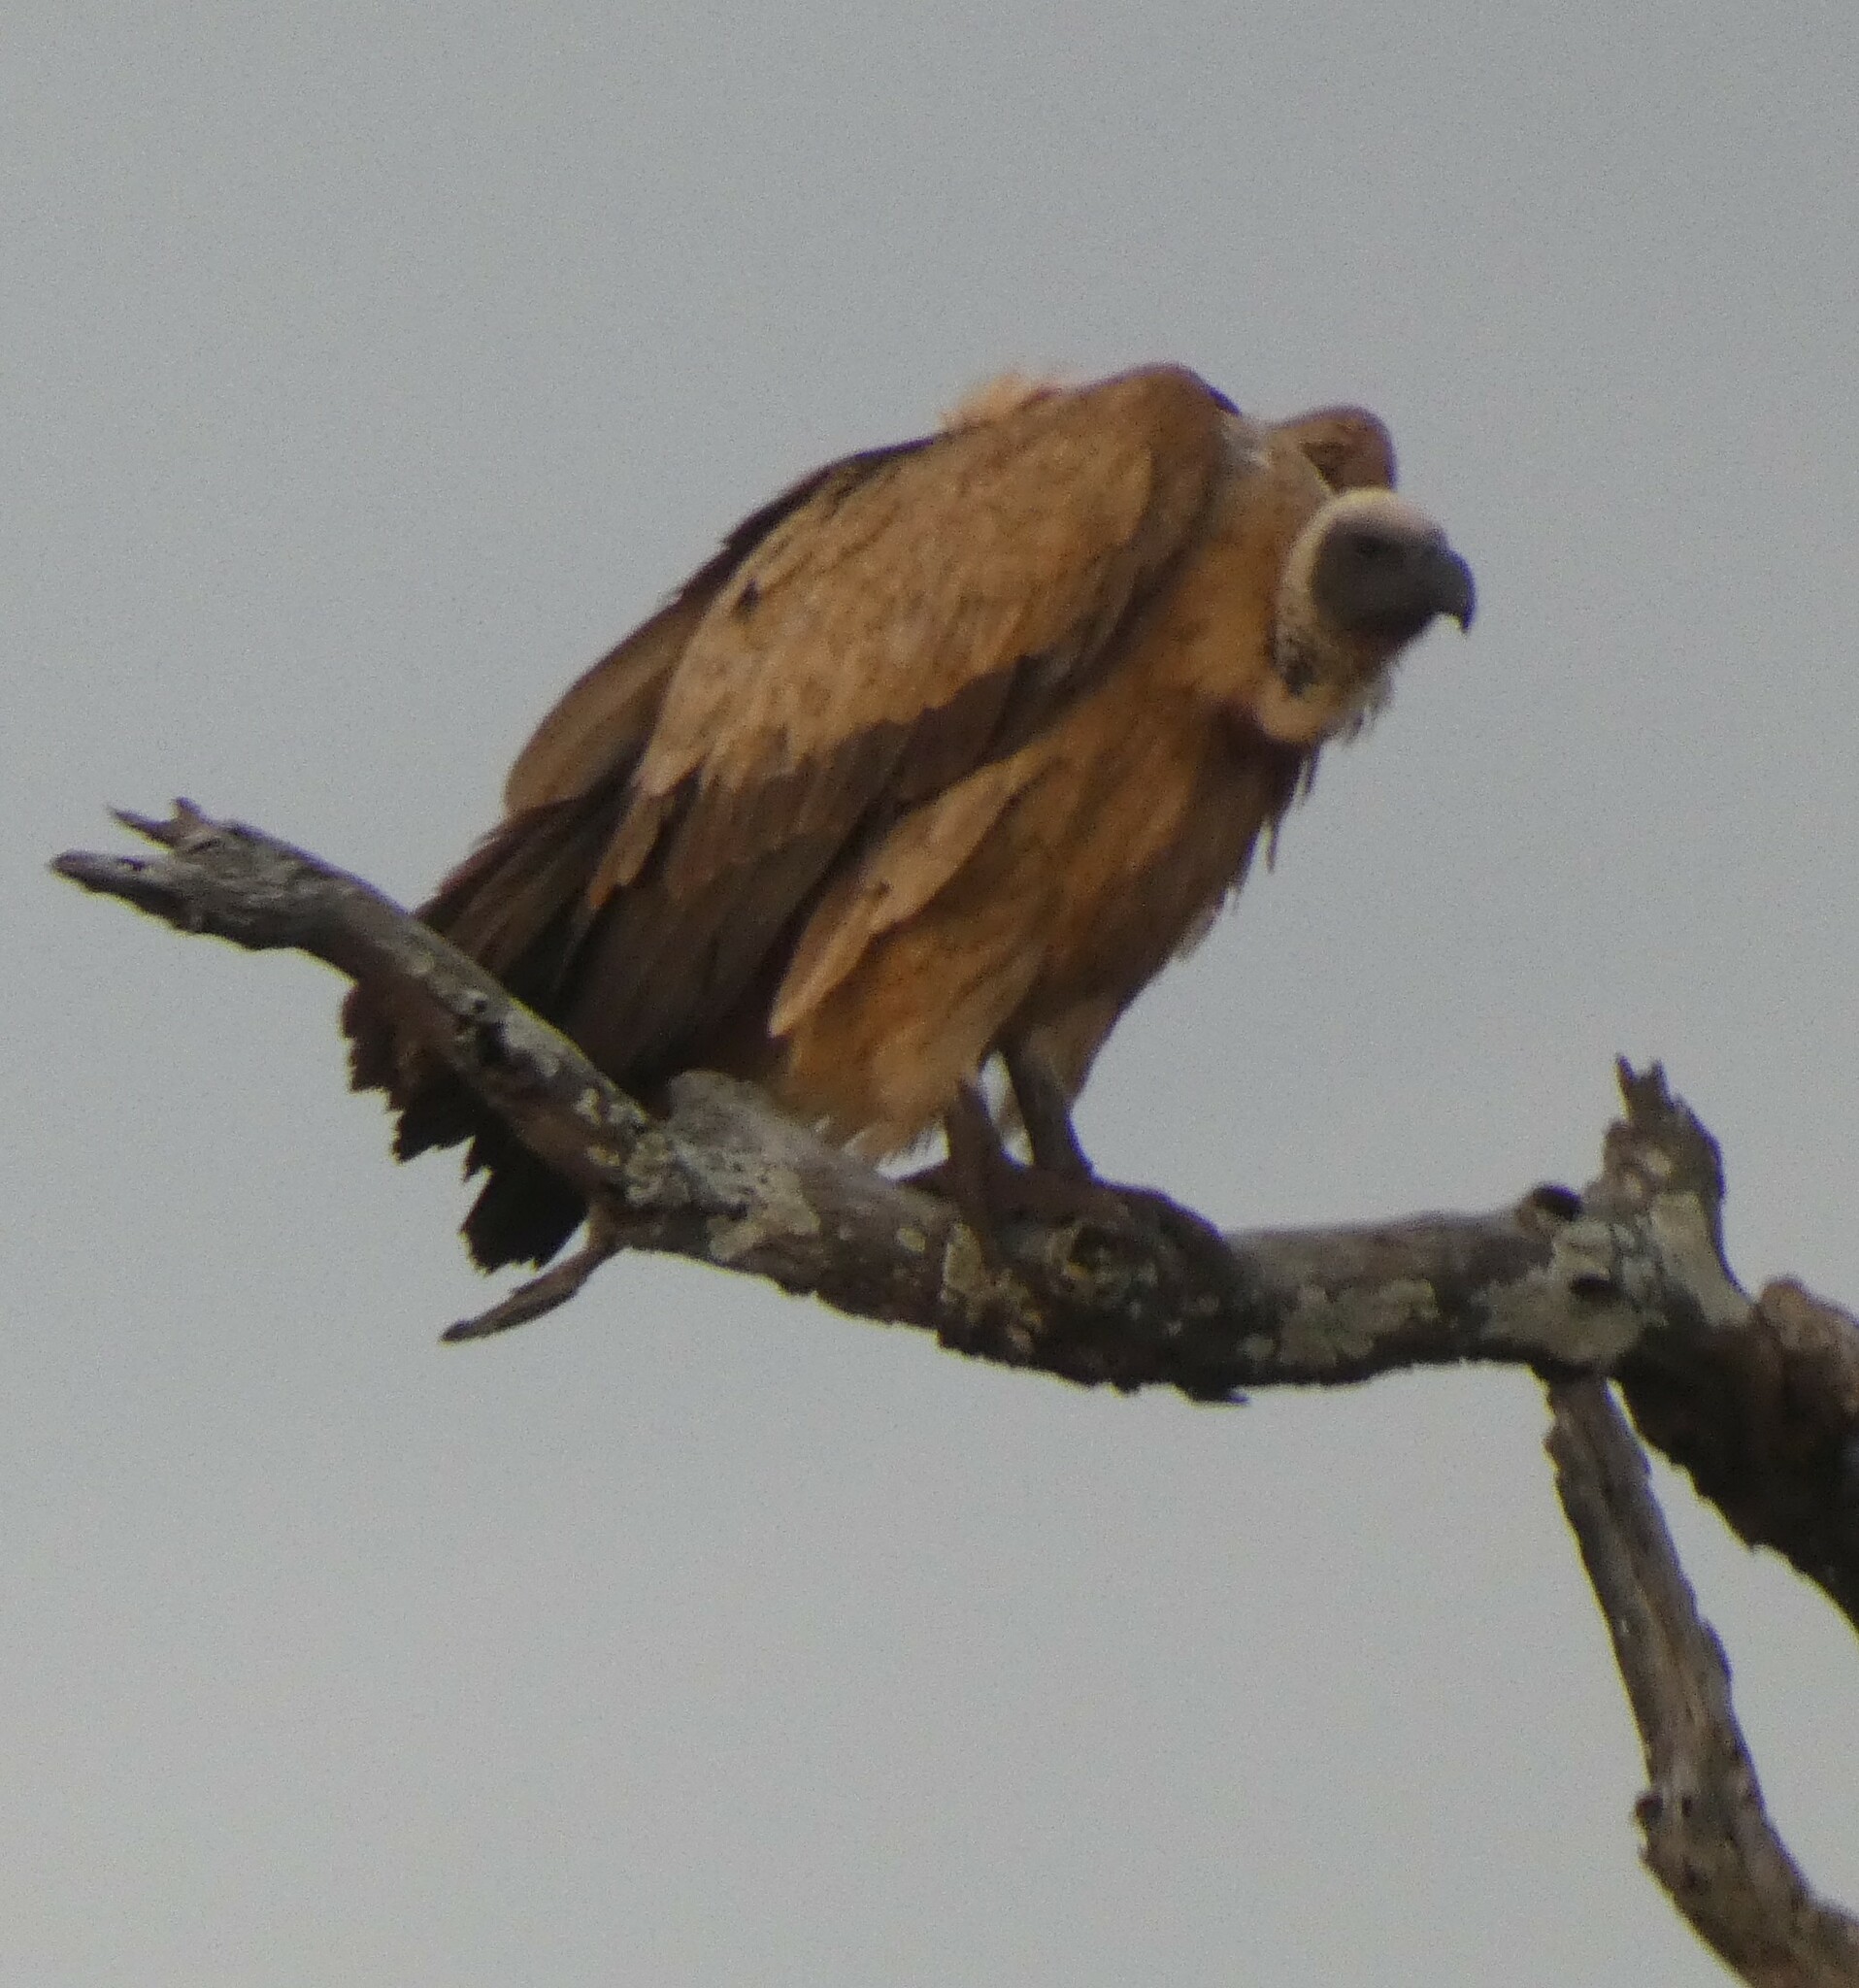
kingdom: Animalia
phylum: Chordata
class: Aves
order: Accipitriformes
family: Accipitridae
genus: Gyps
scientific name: Gyps africanus
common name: White-backed vulture
